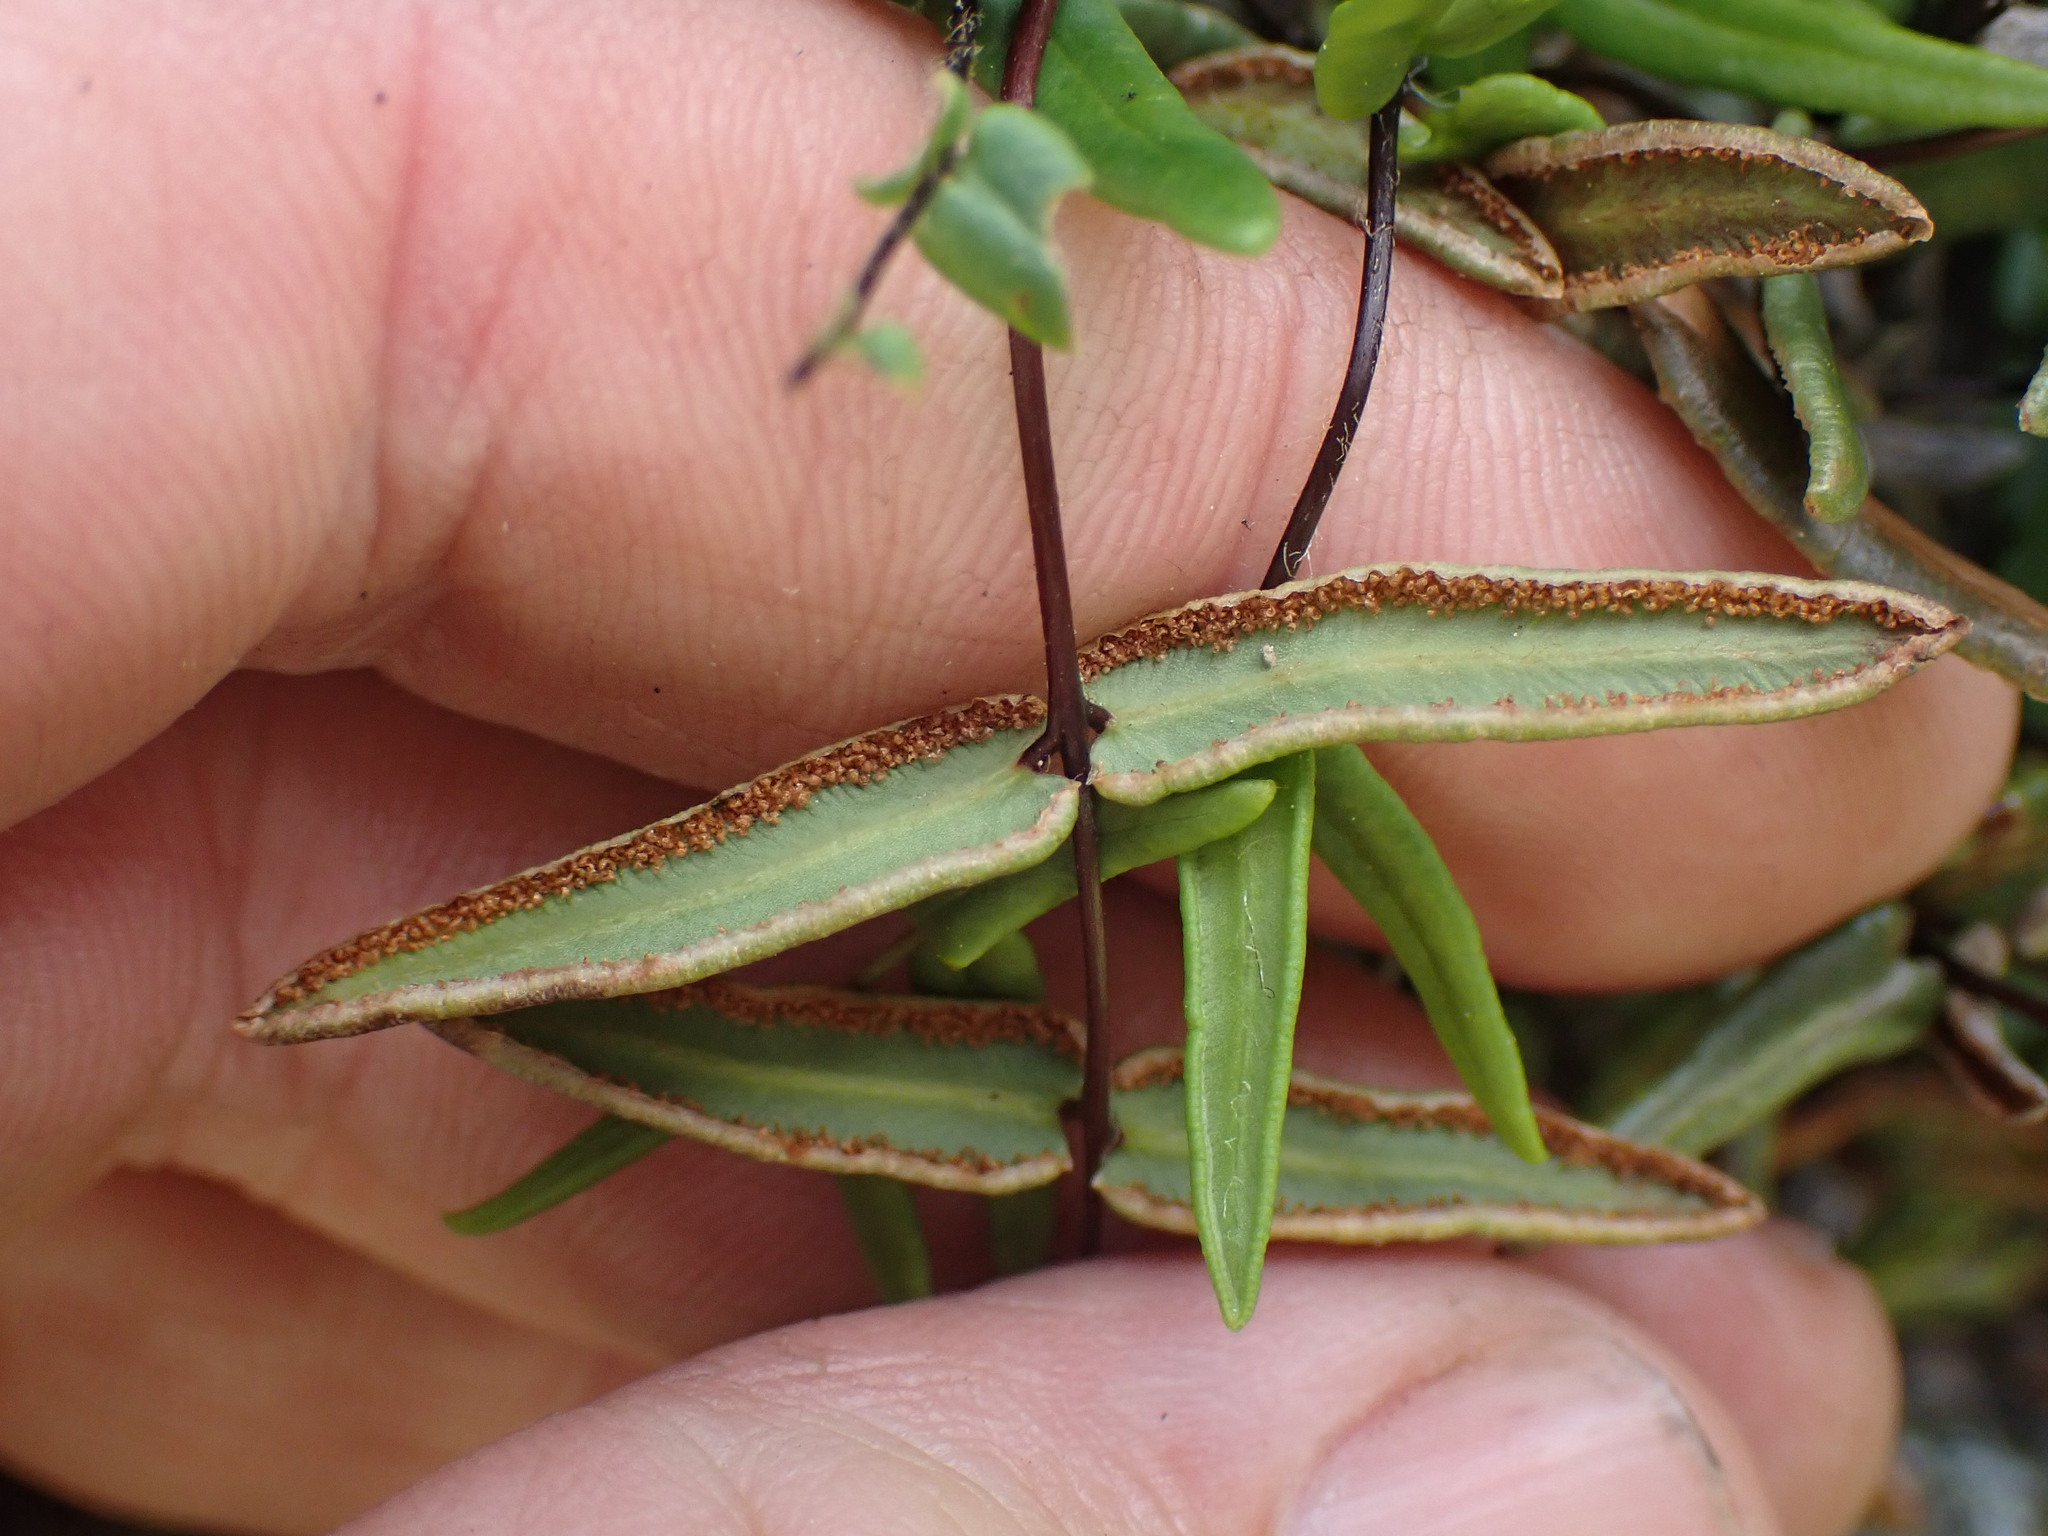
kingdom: Plantae
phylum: Tracheophyta
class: Polypodiopsida
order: Polypodiales
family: Pteridaceae
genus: Pellaea
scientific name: Pellaea gastonyi
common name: Gastony's cliffbrake
